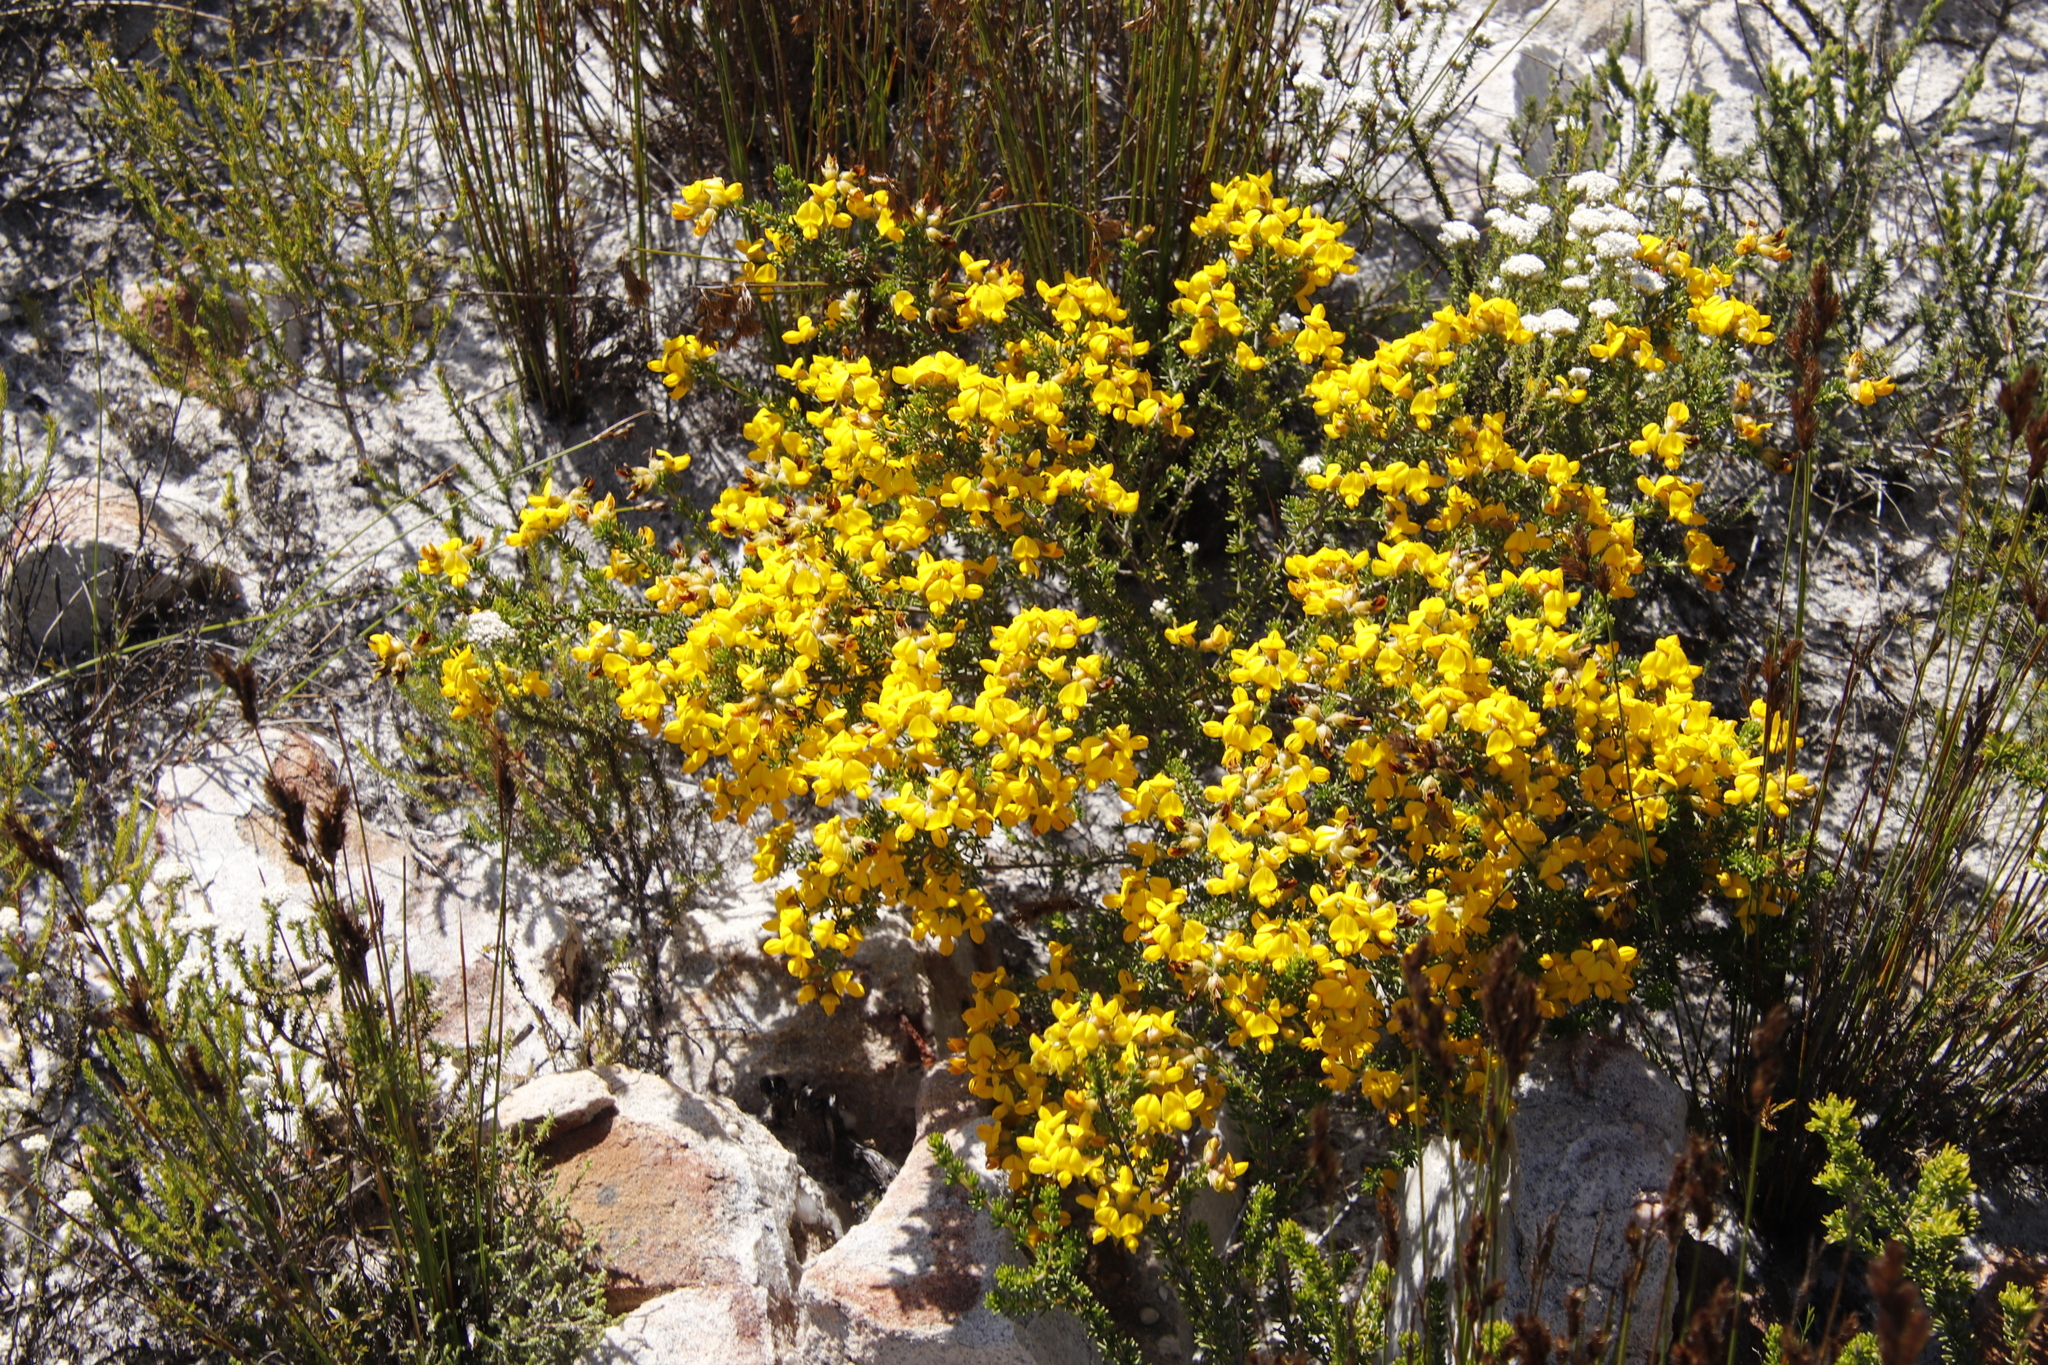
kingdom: Plantae
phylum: Tracheophyta
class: Magnoliopsida
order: Fabales
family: Fabaceae
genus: Aspalathus
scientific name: Aspalathus carnosa
